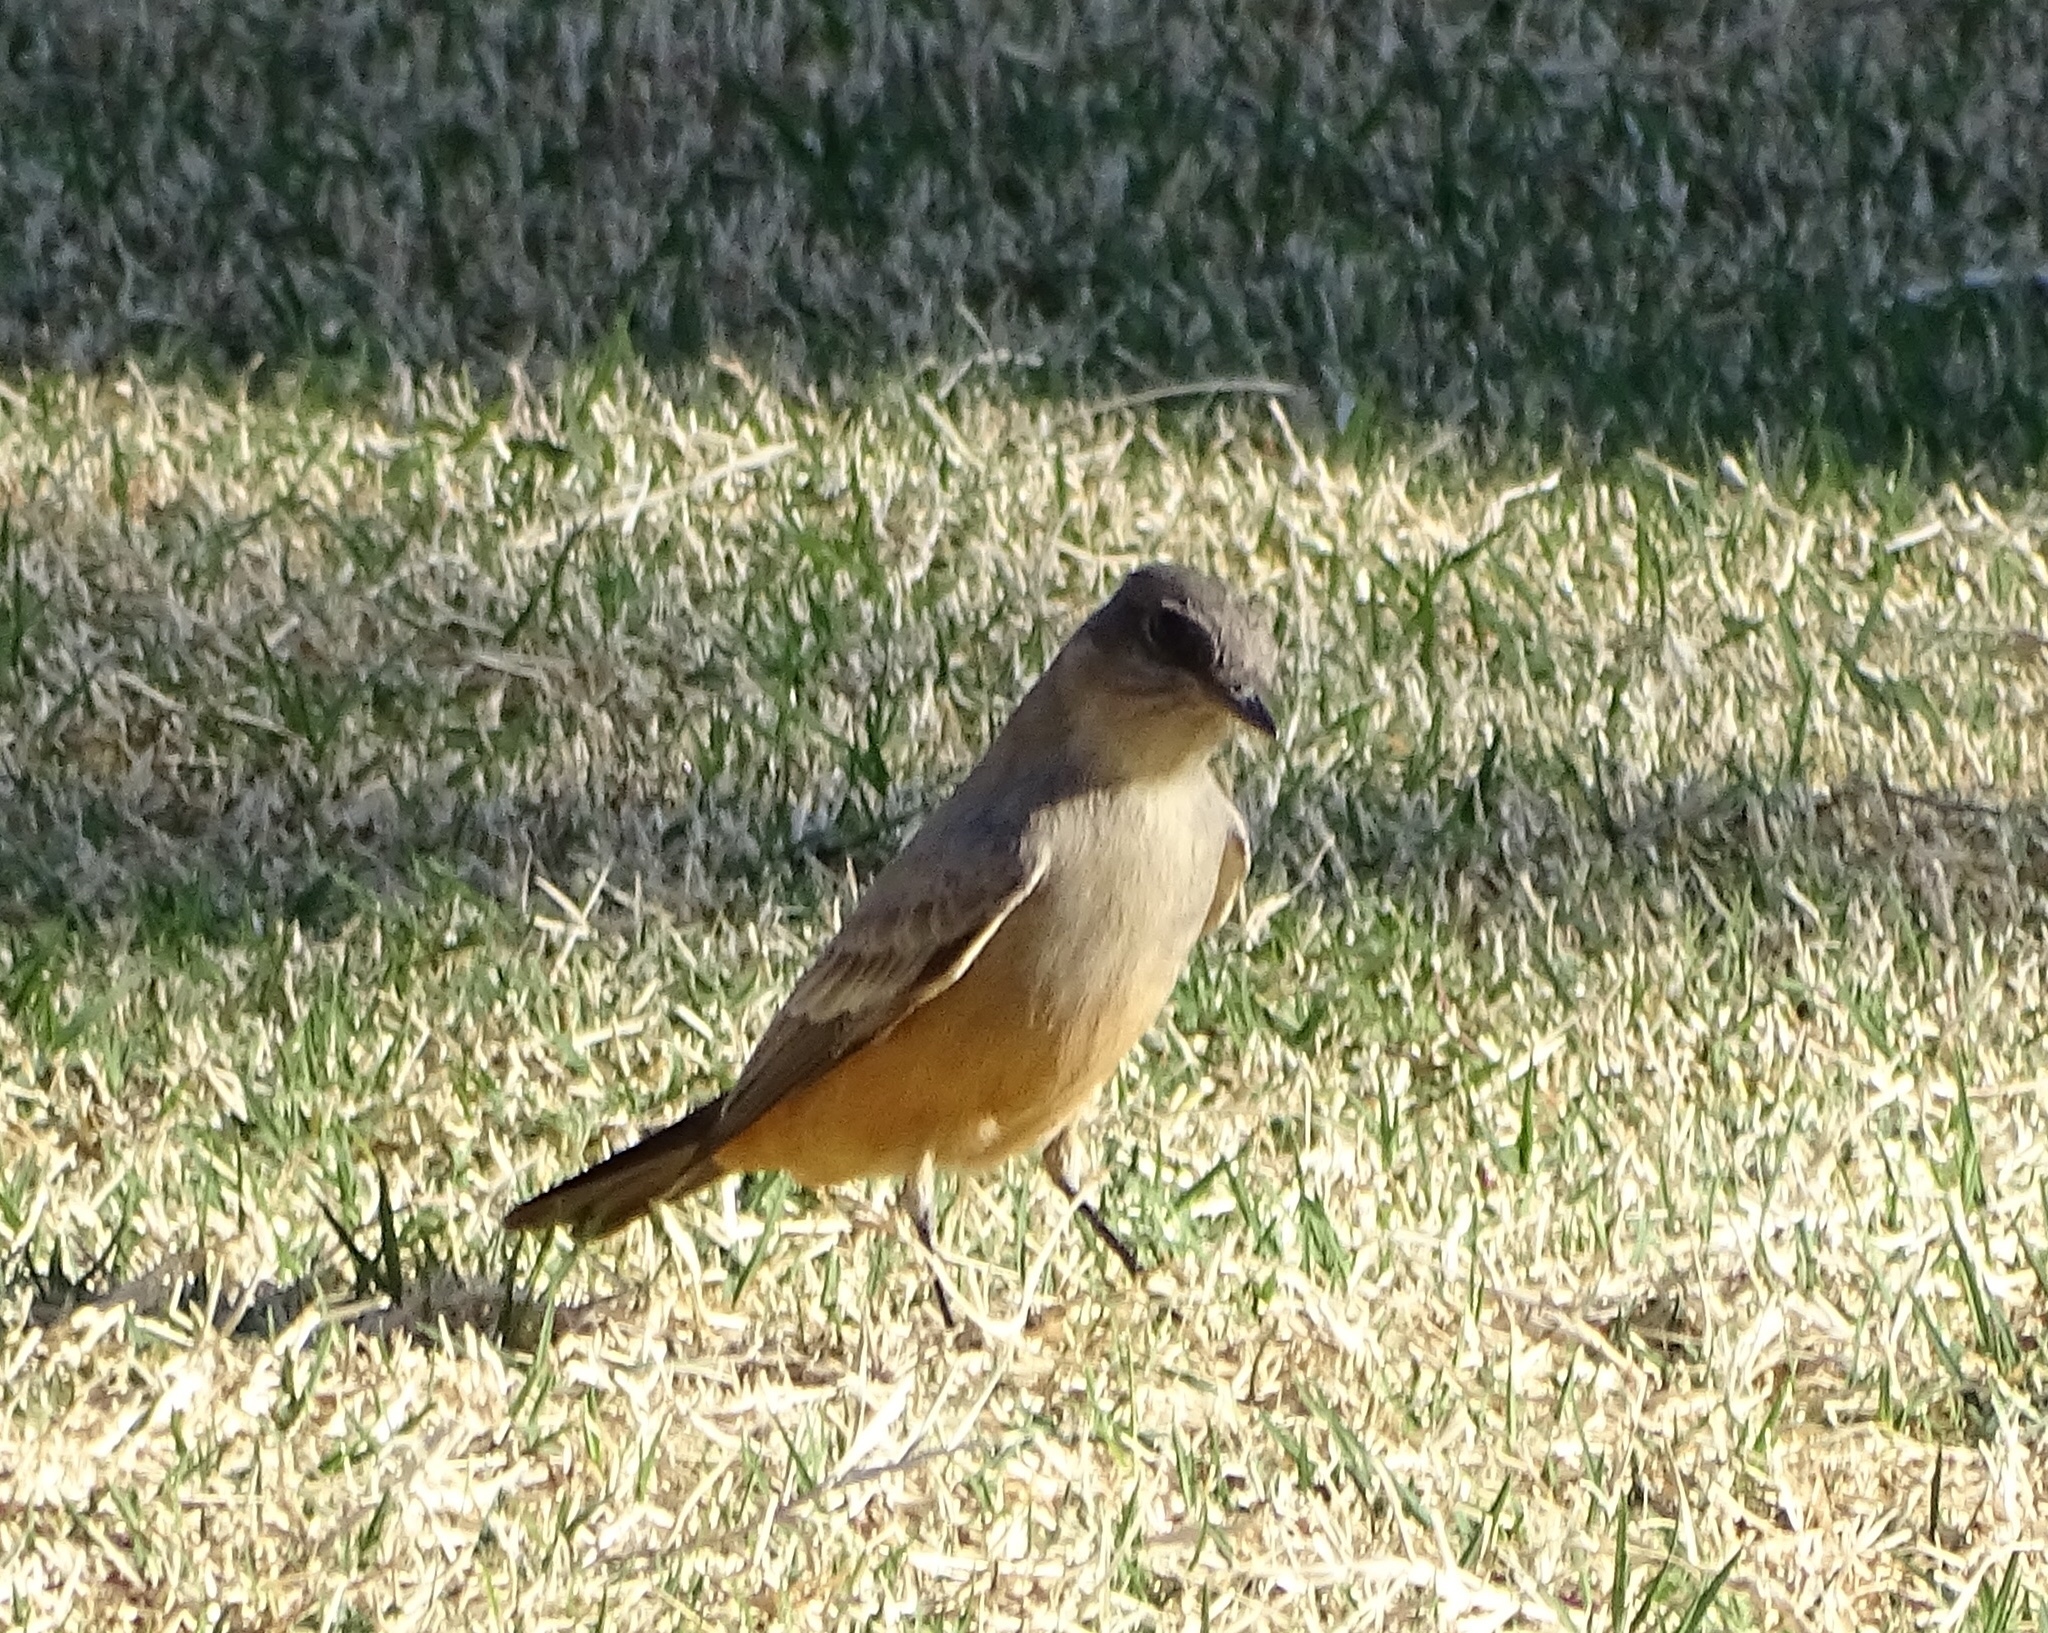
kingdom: Animalia
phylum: Chordata
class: Aves
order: Passeriformes
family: Tyrannidae
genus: Sayornis
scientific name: Sayornis saya
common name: Say's phoebe
